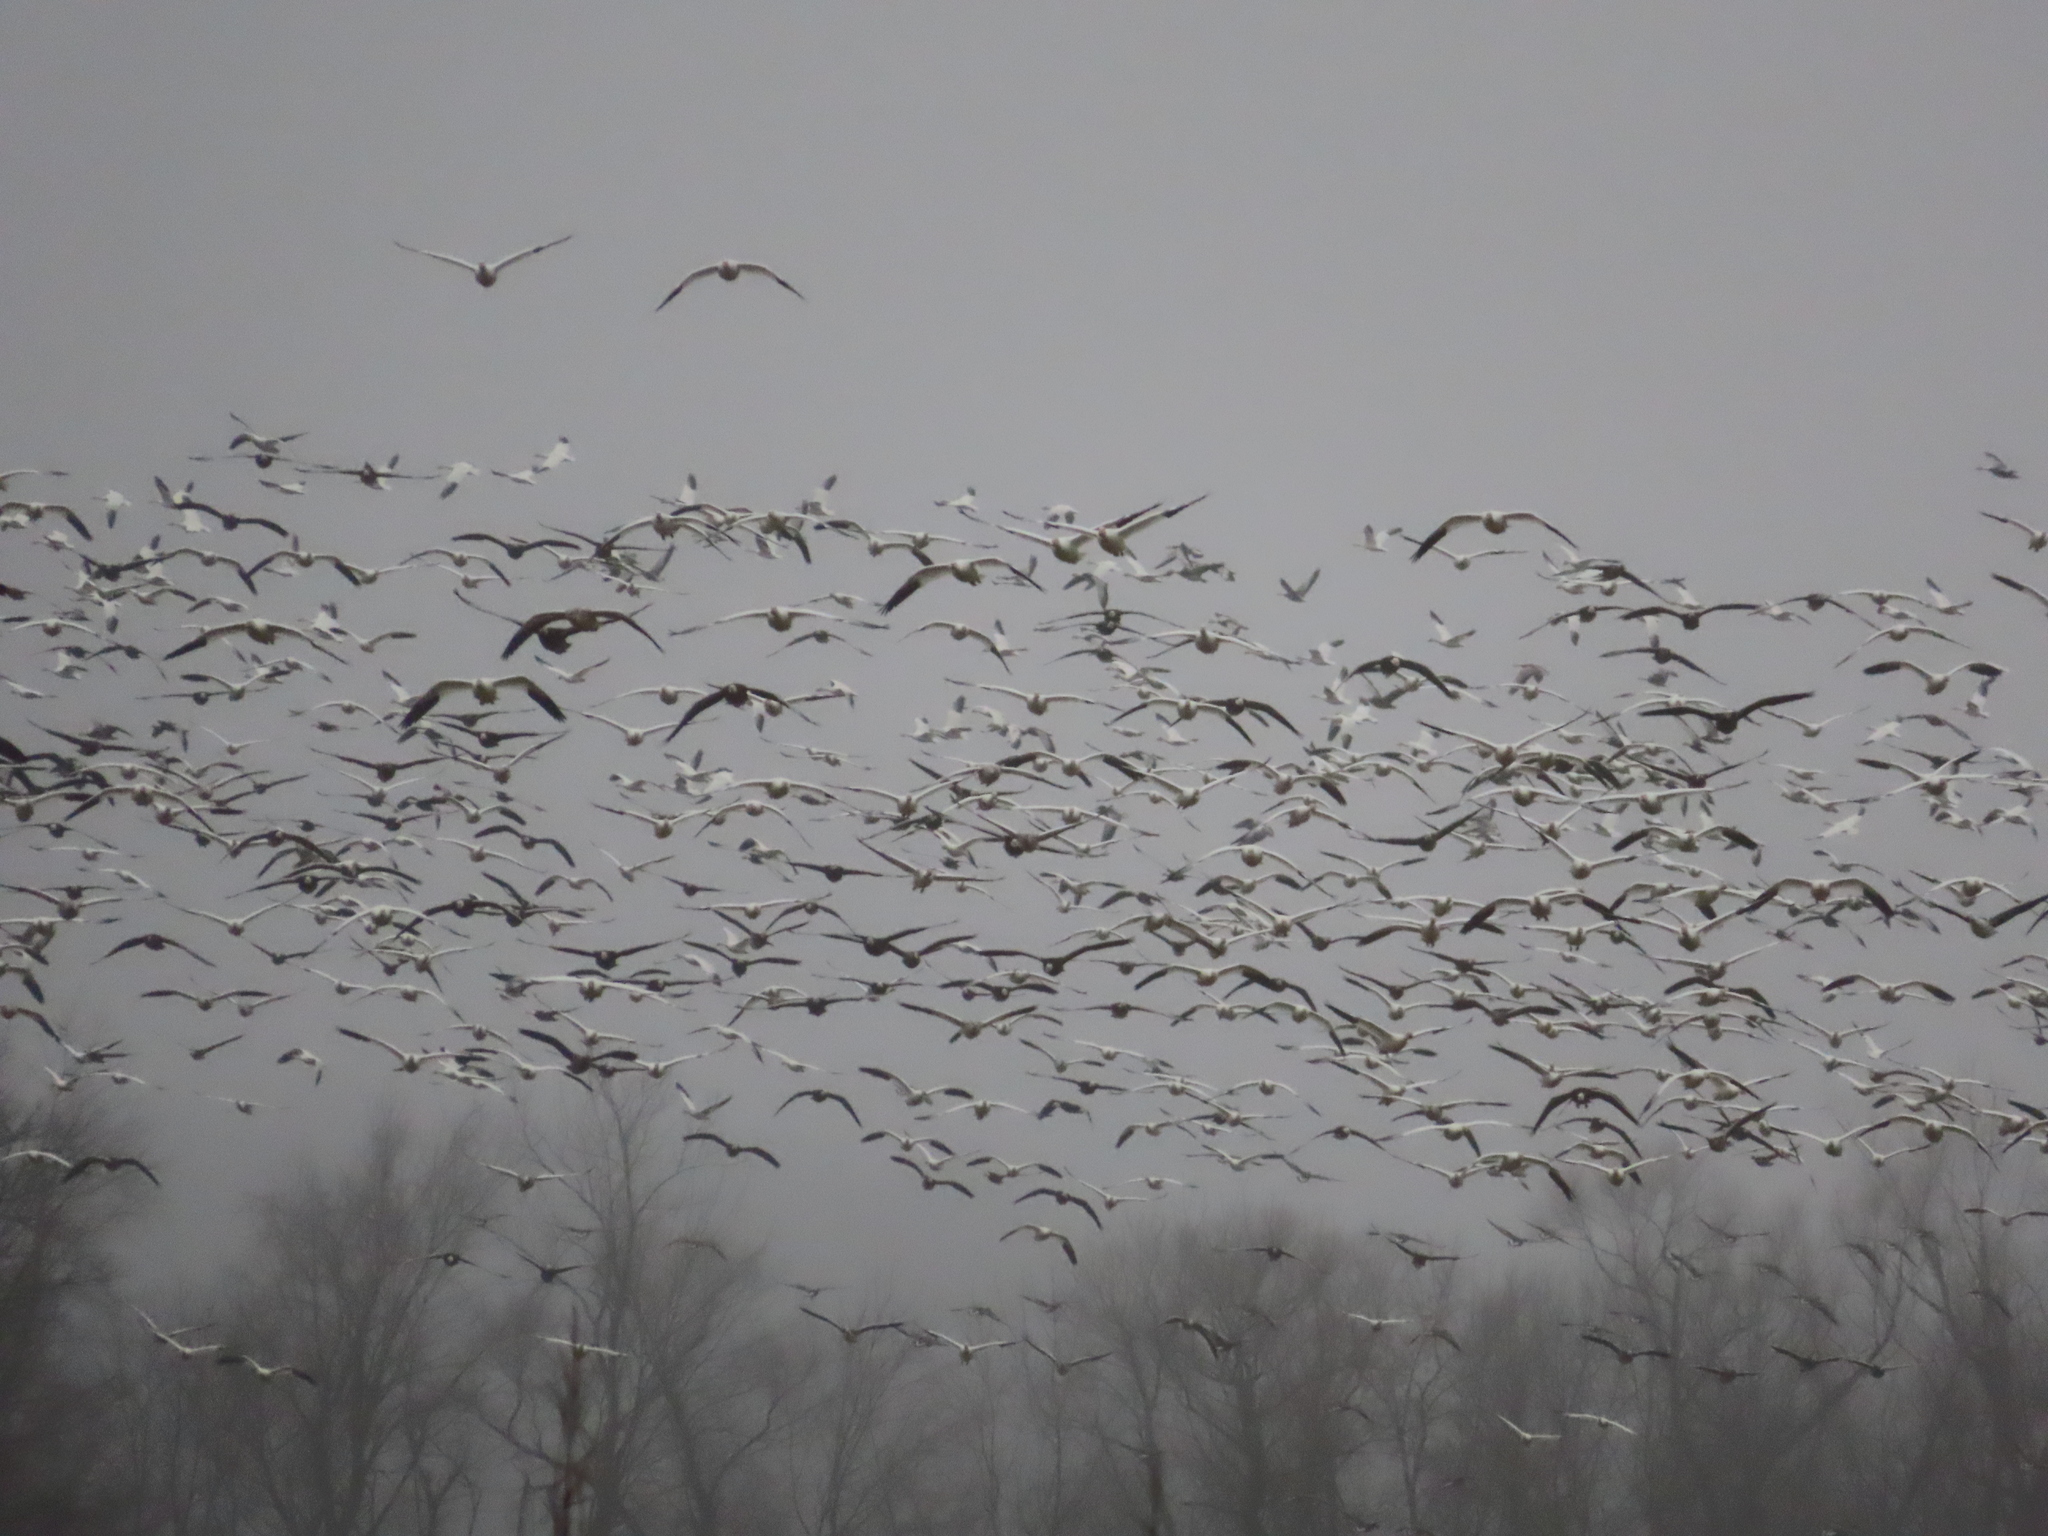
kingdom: Animalia
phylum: Chordata
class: Aves
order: Anseriformes
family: Anatidae
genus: Anser
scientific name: Anser caerulescens
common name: Snow goose
